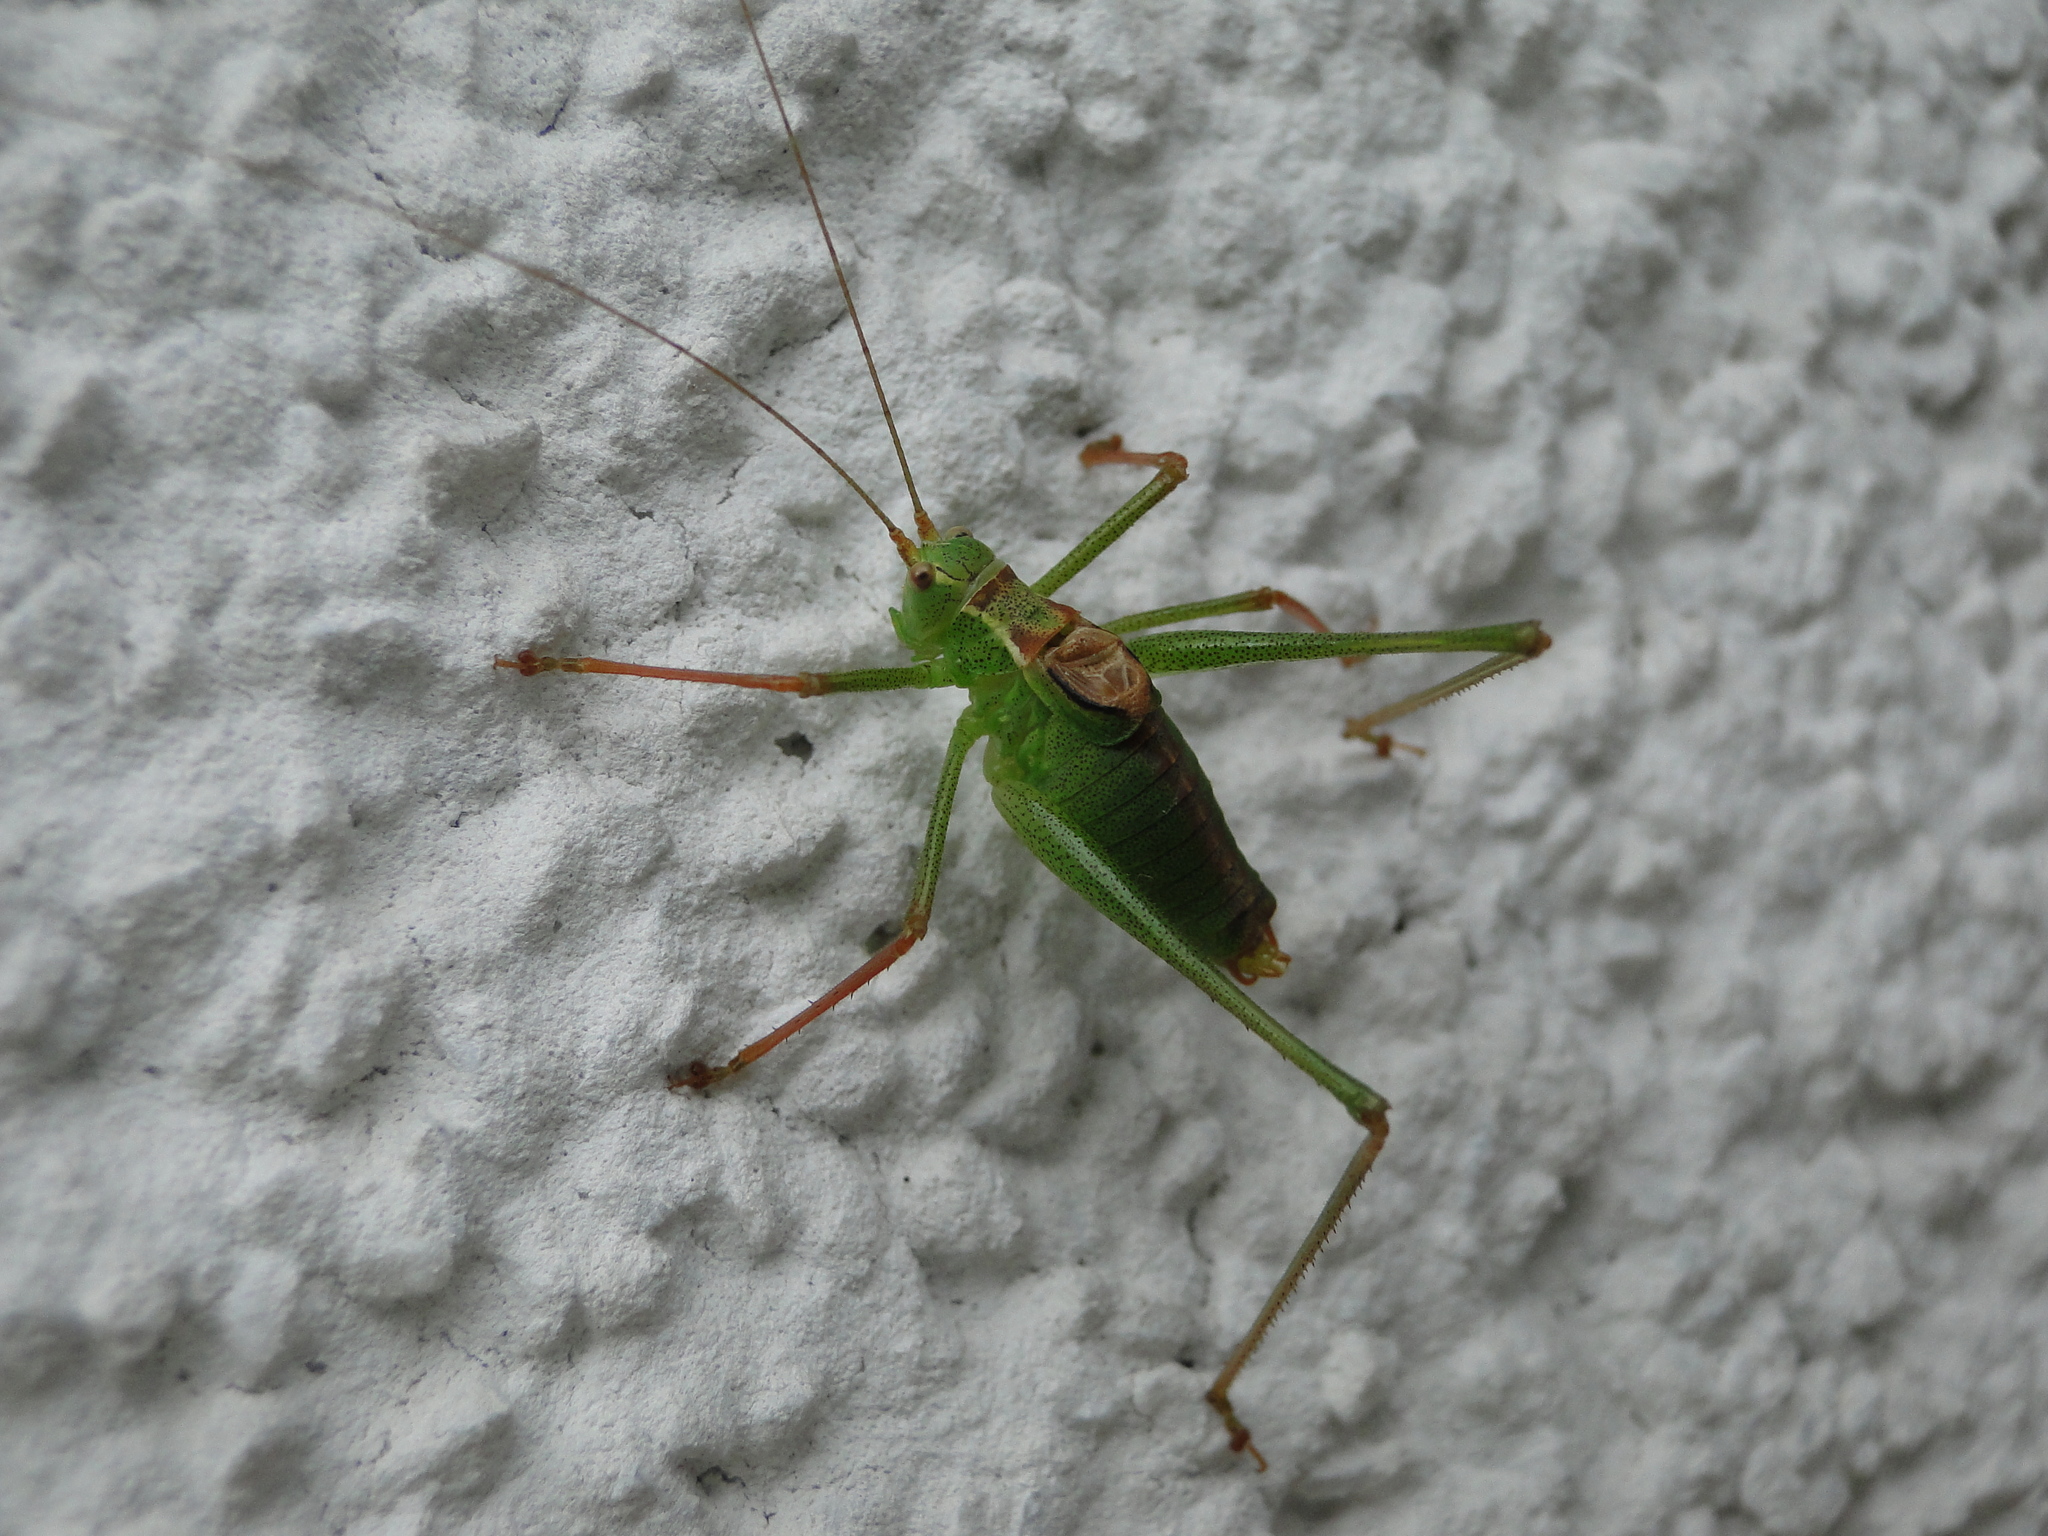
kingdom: Animalia
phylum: Arthropoda
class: Insecta
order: Orthoptera
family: Tettigoniidae
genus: Leptophyes
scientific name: Leptophyes punctatissima
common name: Speckled bush-cricket
